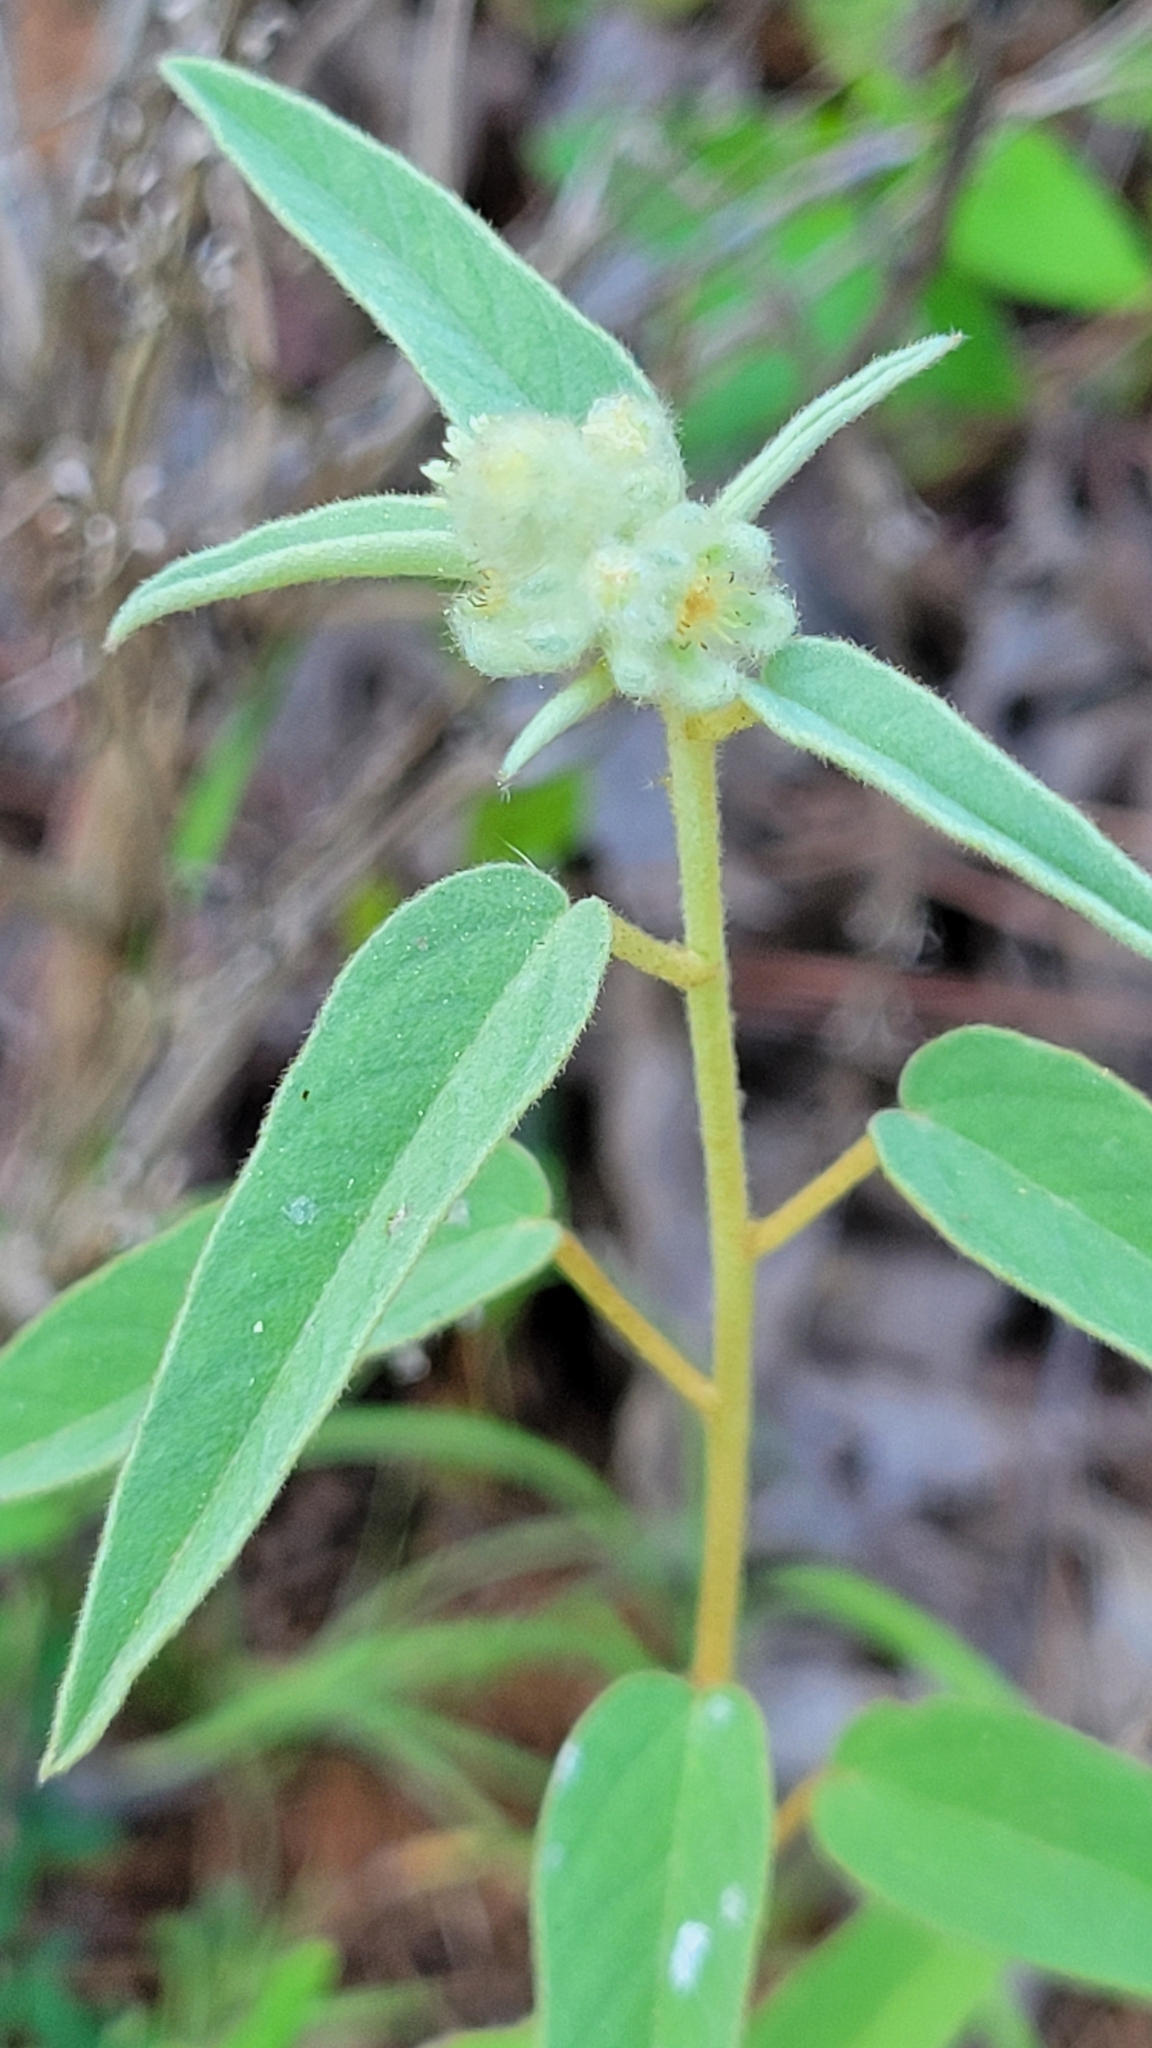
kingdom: Plantae
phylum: Tracheophyta
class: Magnoliopsida
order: Malpighiales
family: Euphorbiaceae
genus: Croton
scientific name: Croton lindheimeri
